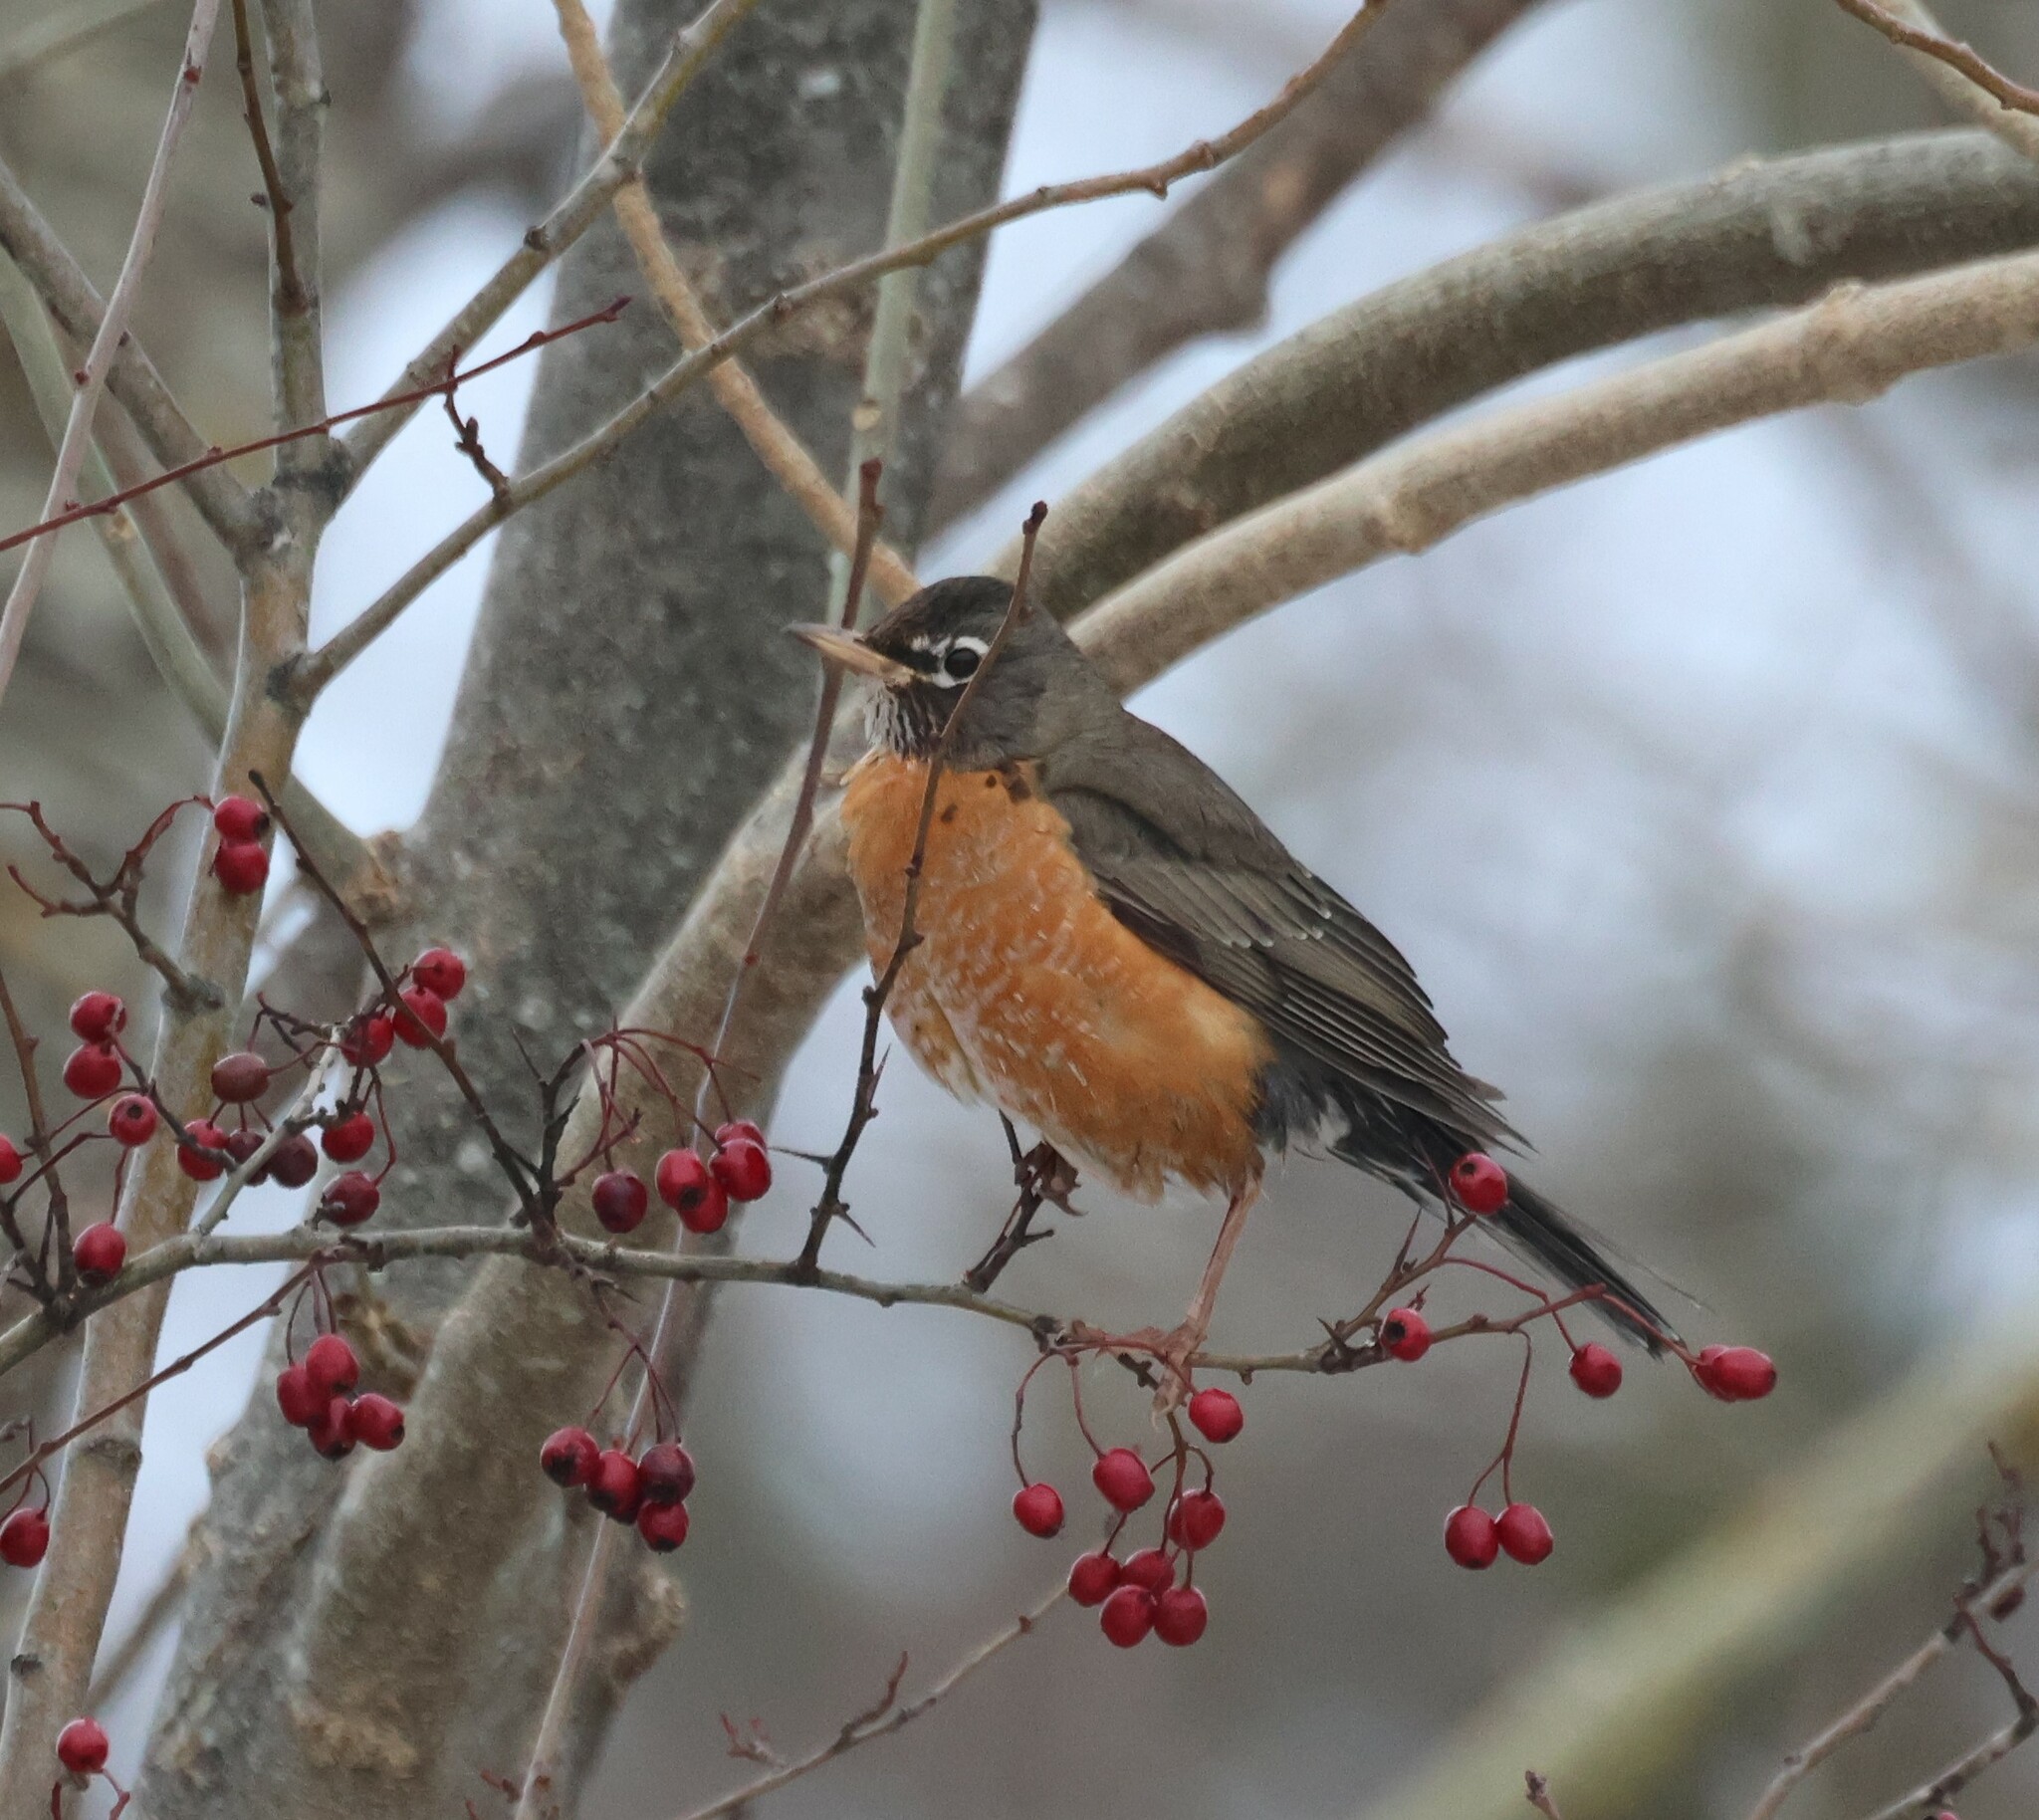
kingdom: Animalia
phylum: Chordata
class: Aves
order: Passeriformes
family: Turdidae
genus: Turdus
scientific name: Turdus migratorius
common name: American robin
